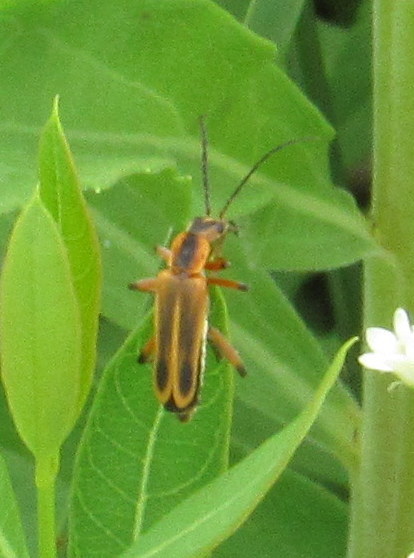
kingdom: Animalia
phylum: Arthropoda
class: Insecta
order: Coleoptera
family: Cantharidae
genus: Chauliognathus
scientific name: Chauliognathus marginatus
